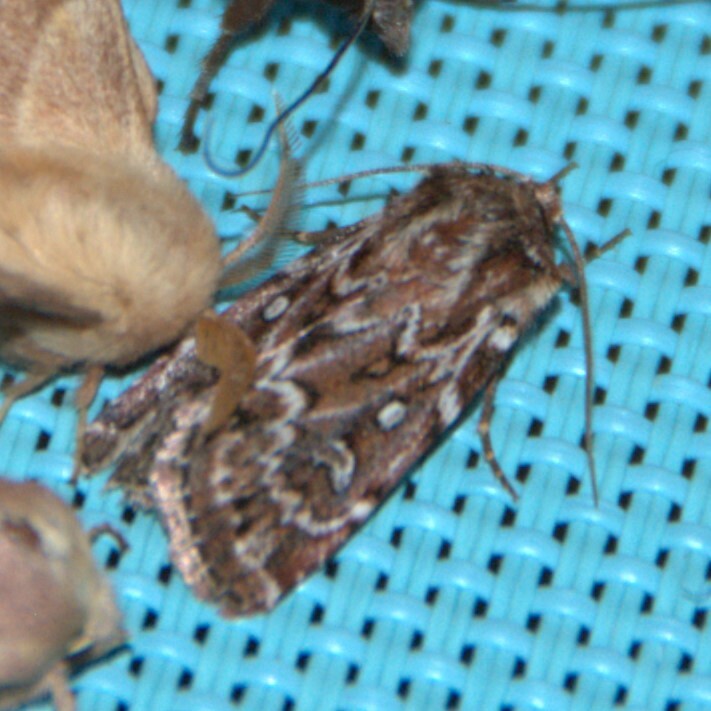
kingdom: Animalia
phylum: Arthropoda
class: Insecta
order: Lepidoptera
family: Noctuidae
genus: Lycophotia
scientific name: Lycophotia porphyrea
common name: True lover's knot
